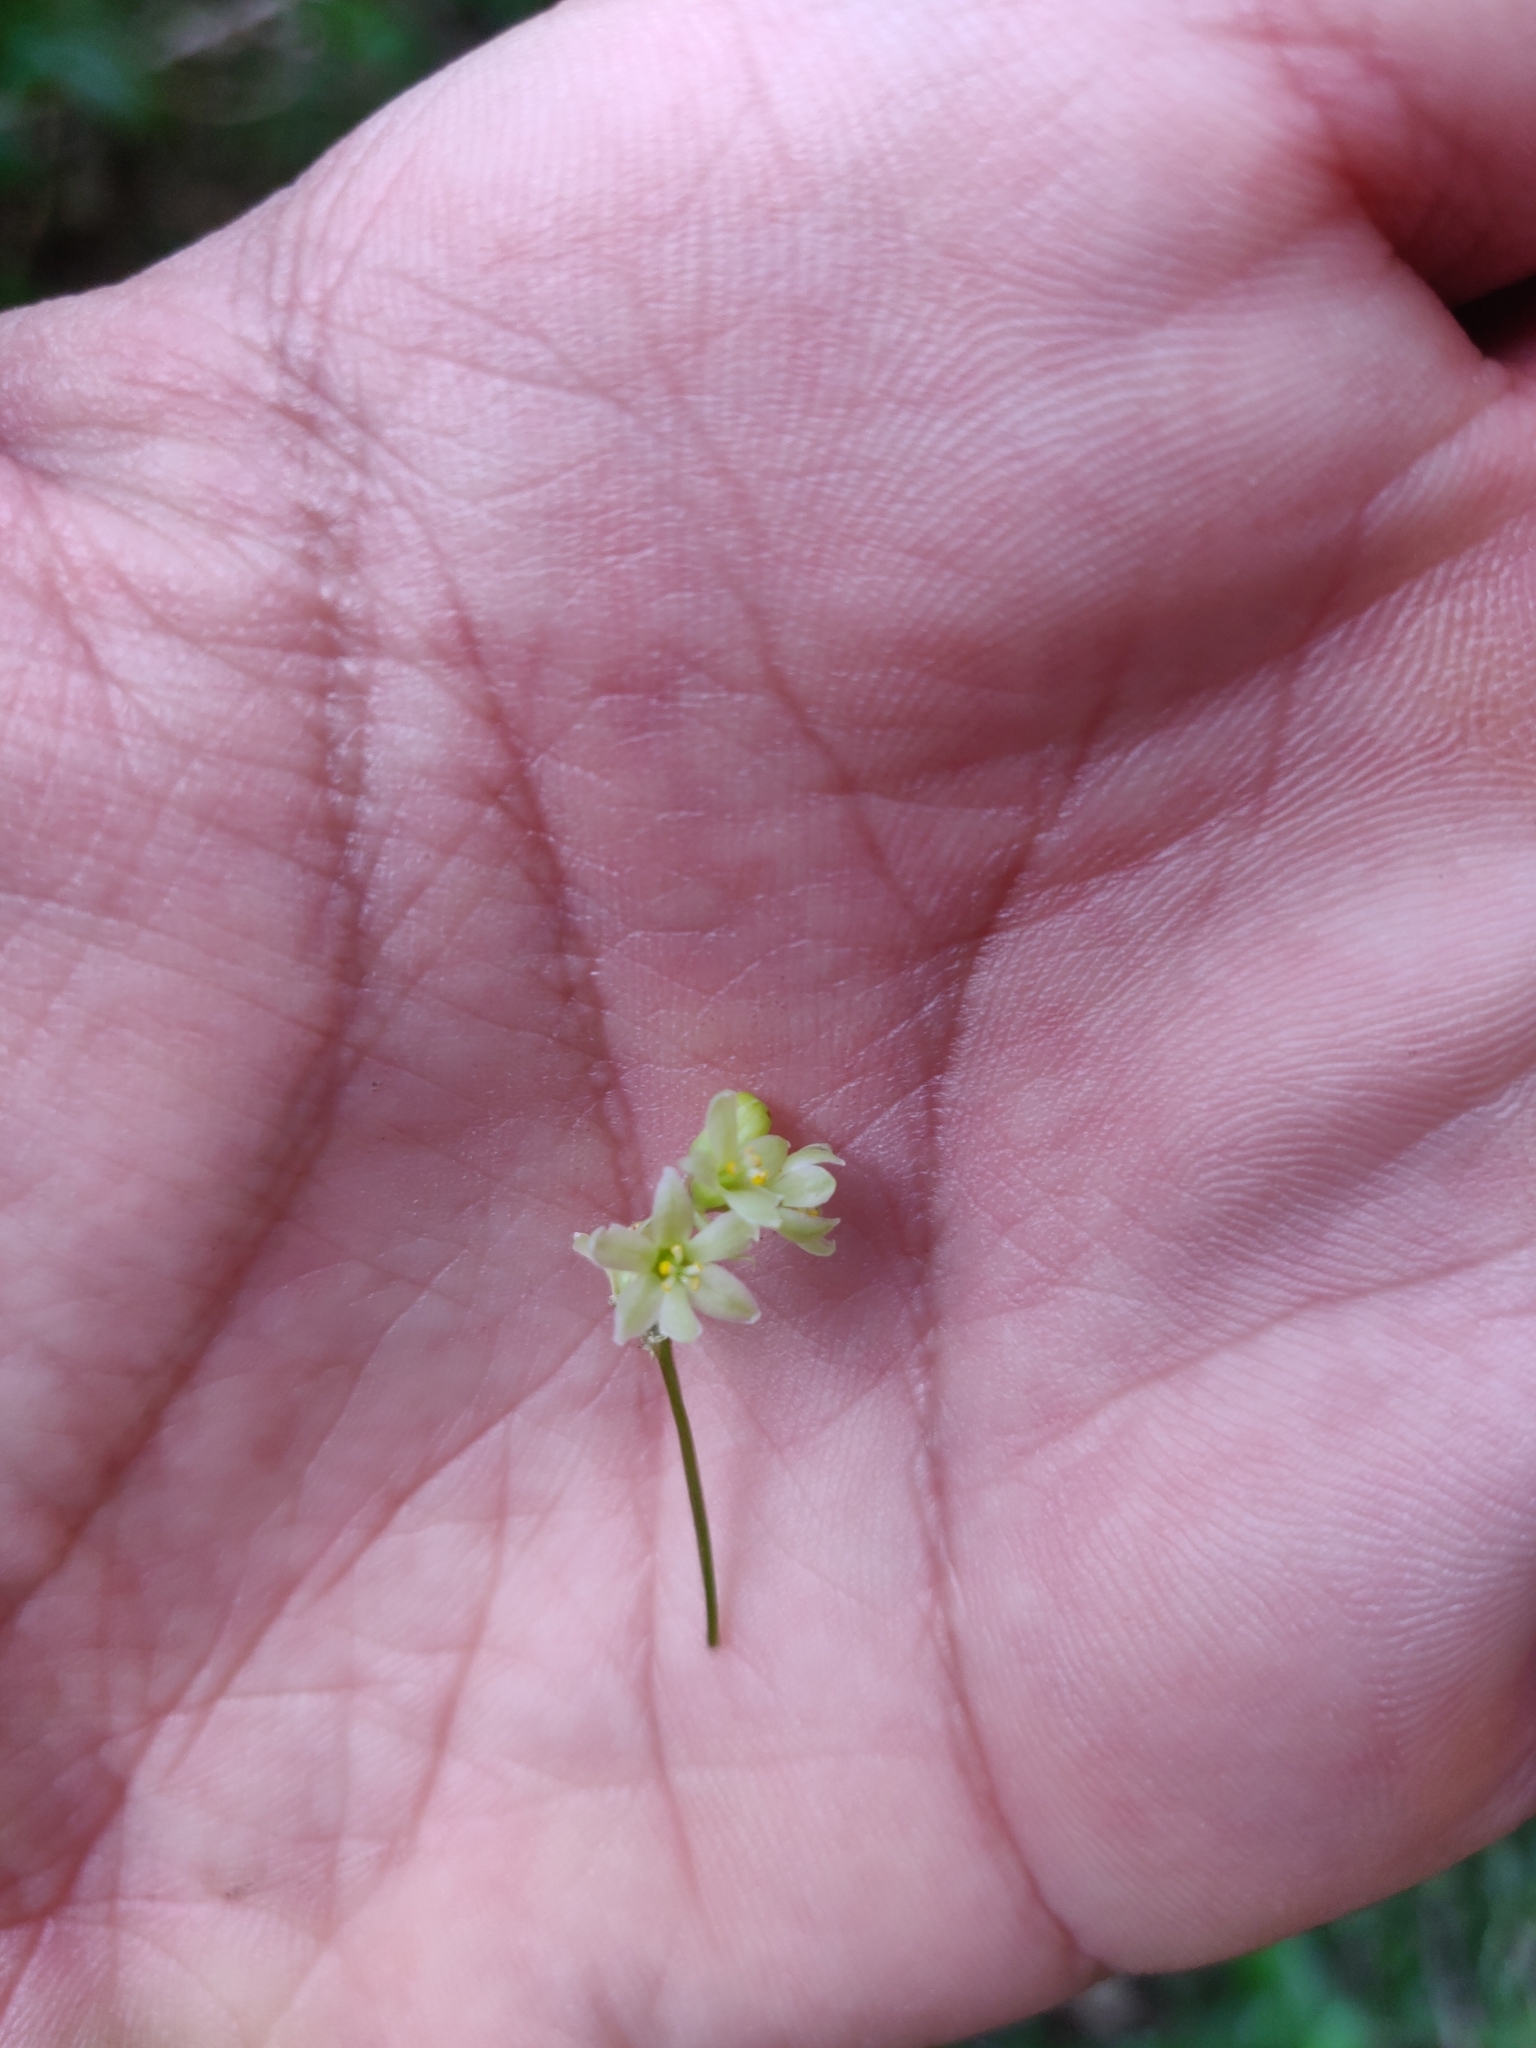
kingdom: Plantae
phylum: Tracheophyta
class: Liliopsida
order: Dioscoreales
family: Dioscoreaceae
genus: Dioscorea
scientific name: Dioscorea communis
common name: Black-bindweed
